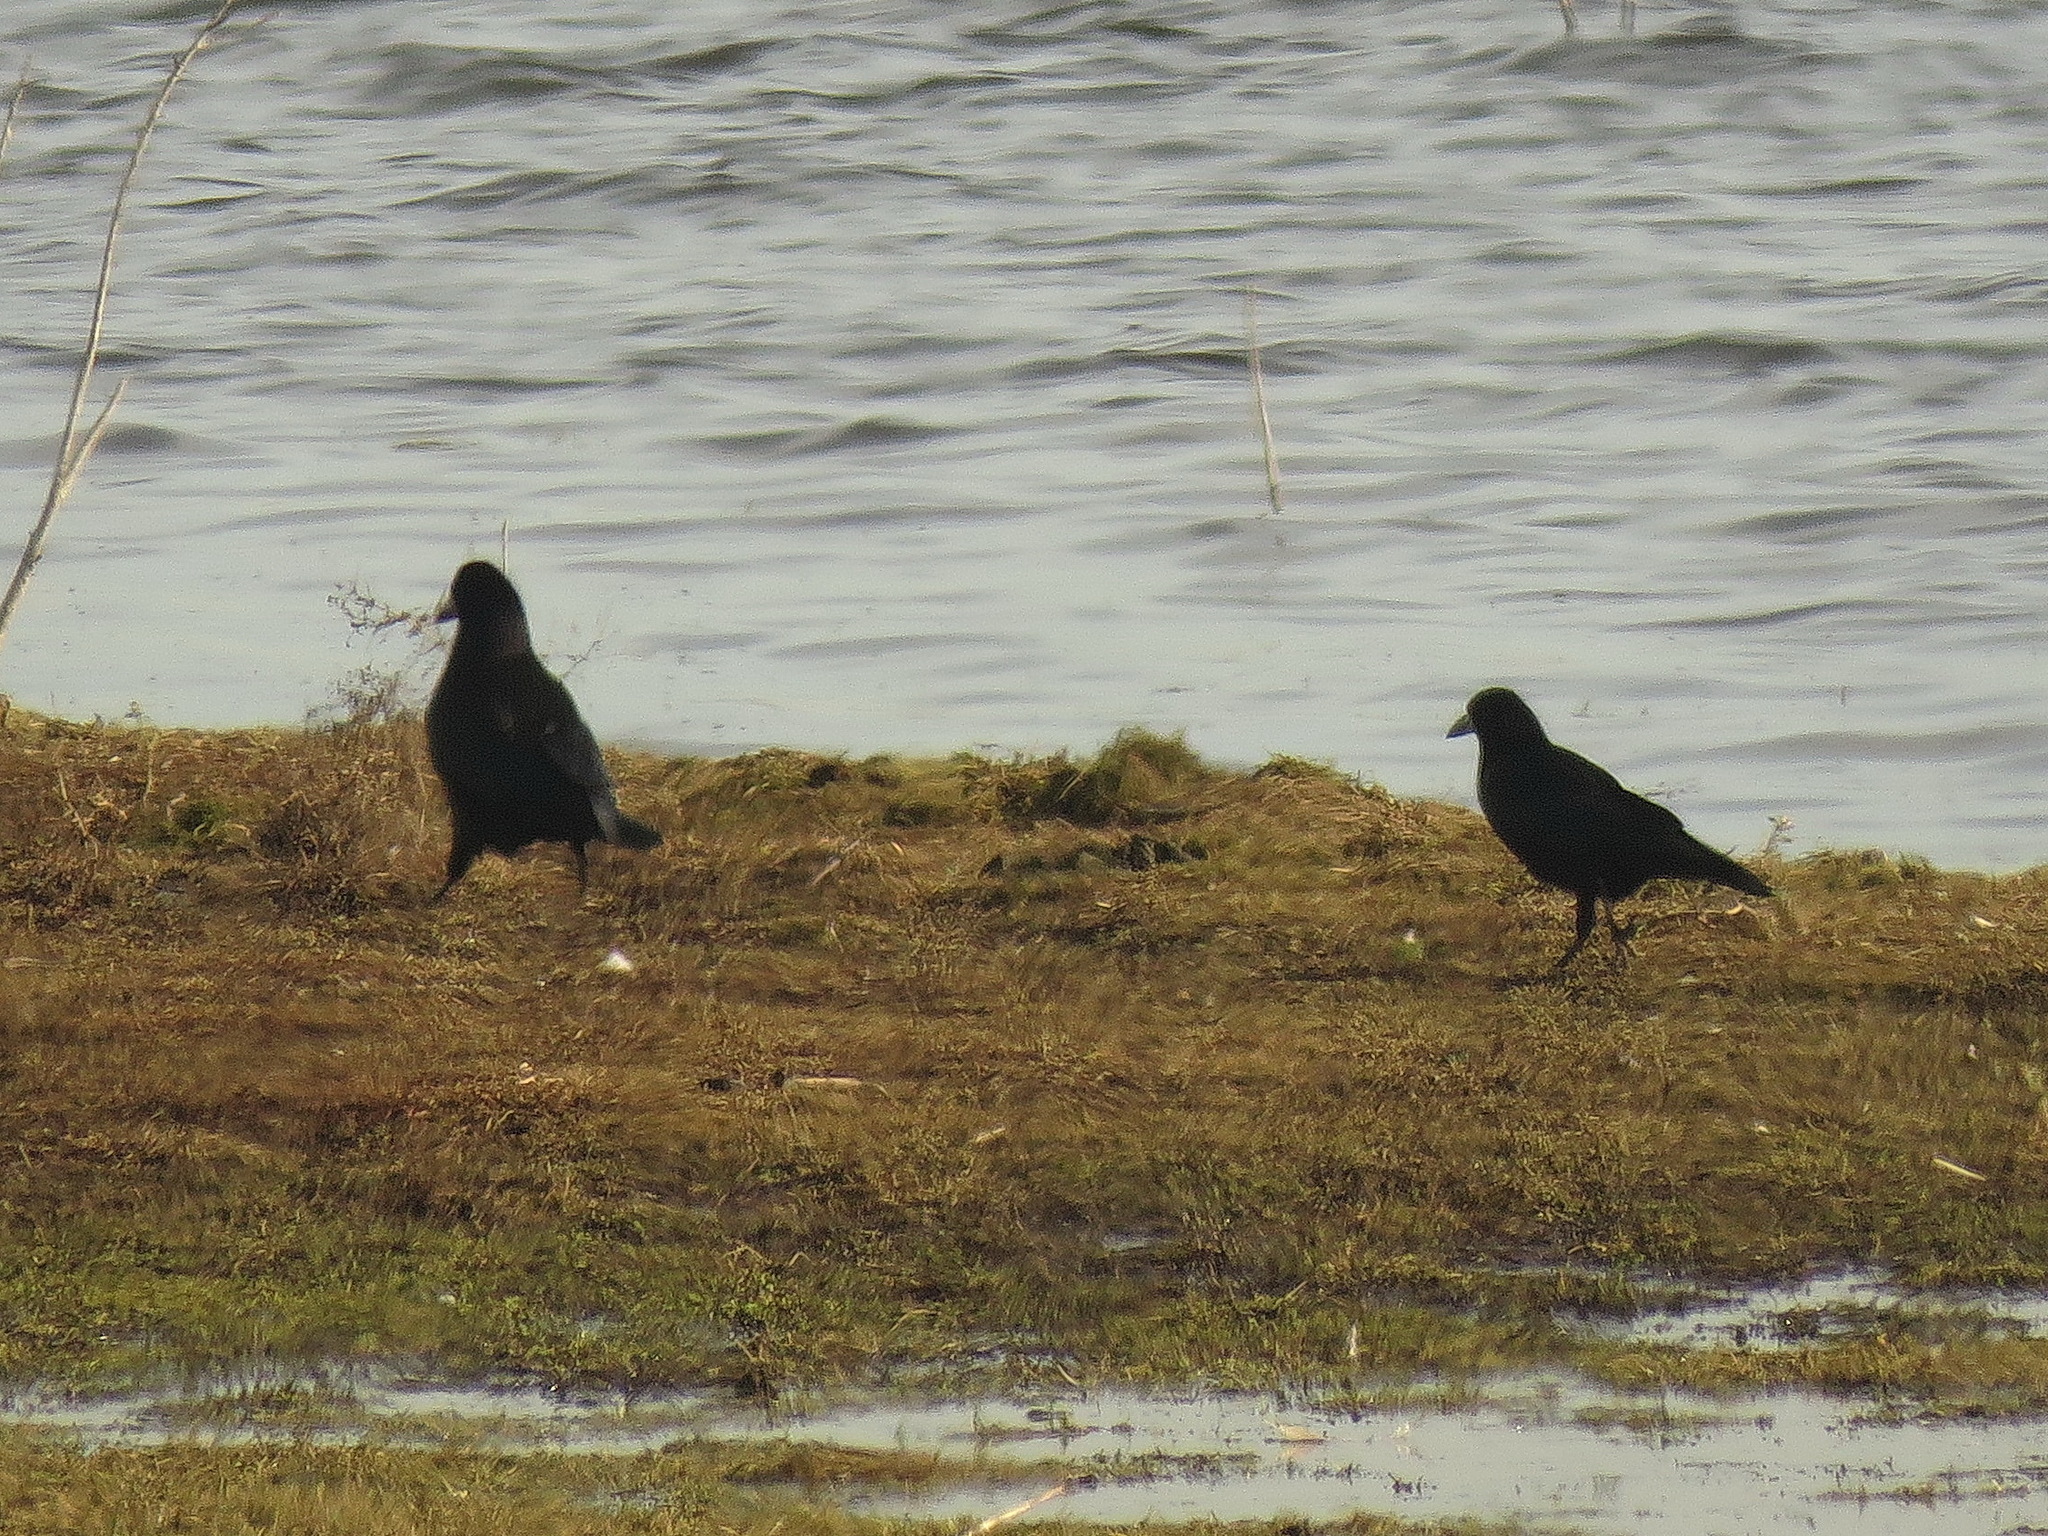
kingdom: Animalia
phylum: Chordata
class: Aves
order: Passeriformes
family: Corvidae
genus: Corvus
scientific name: Corvus frugilegus
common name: Rook
